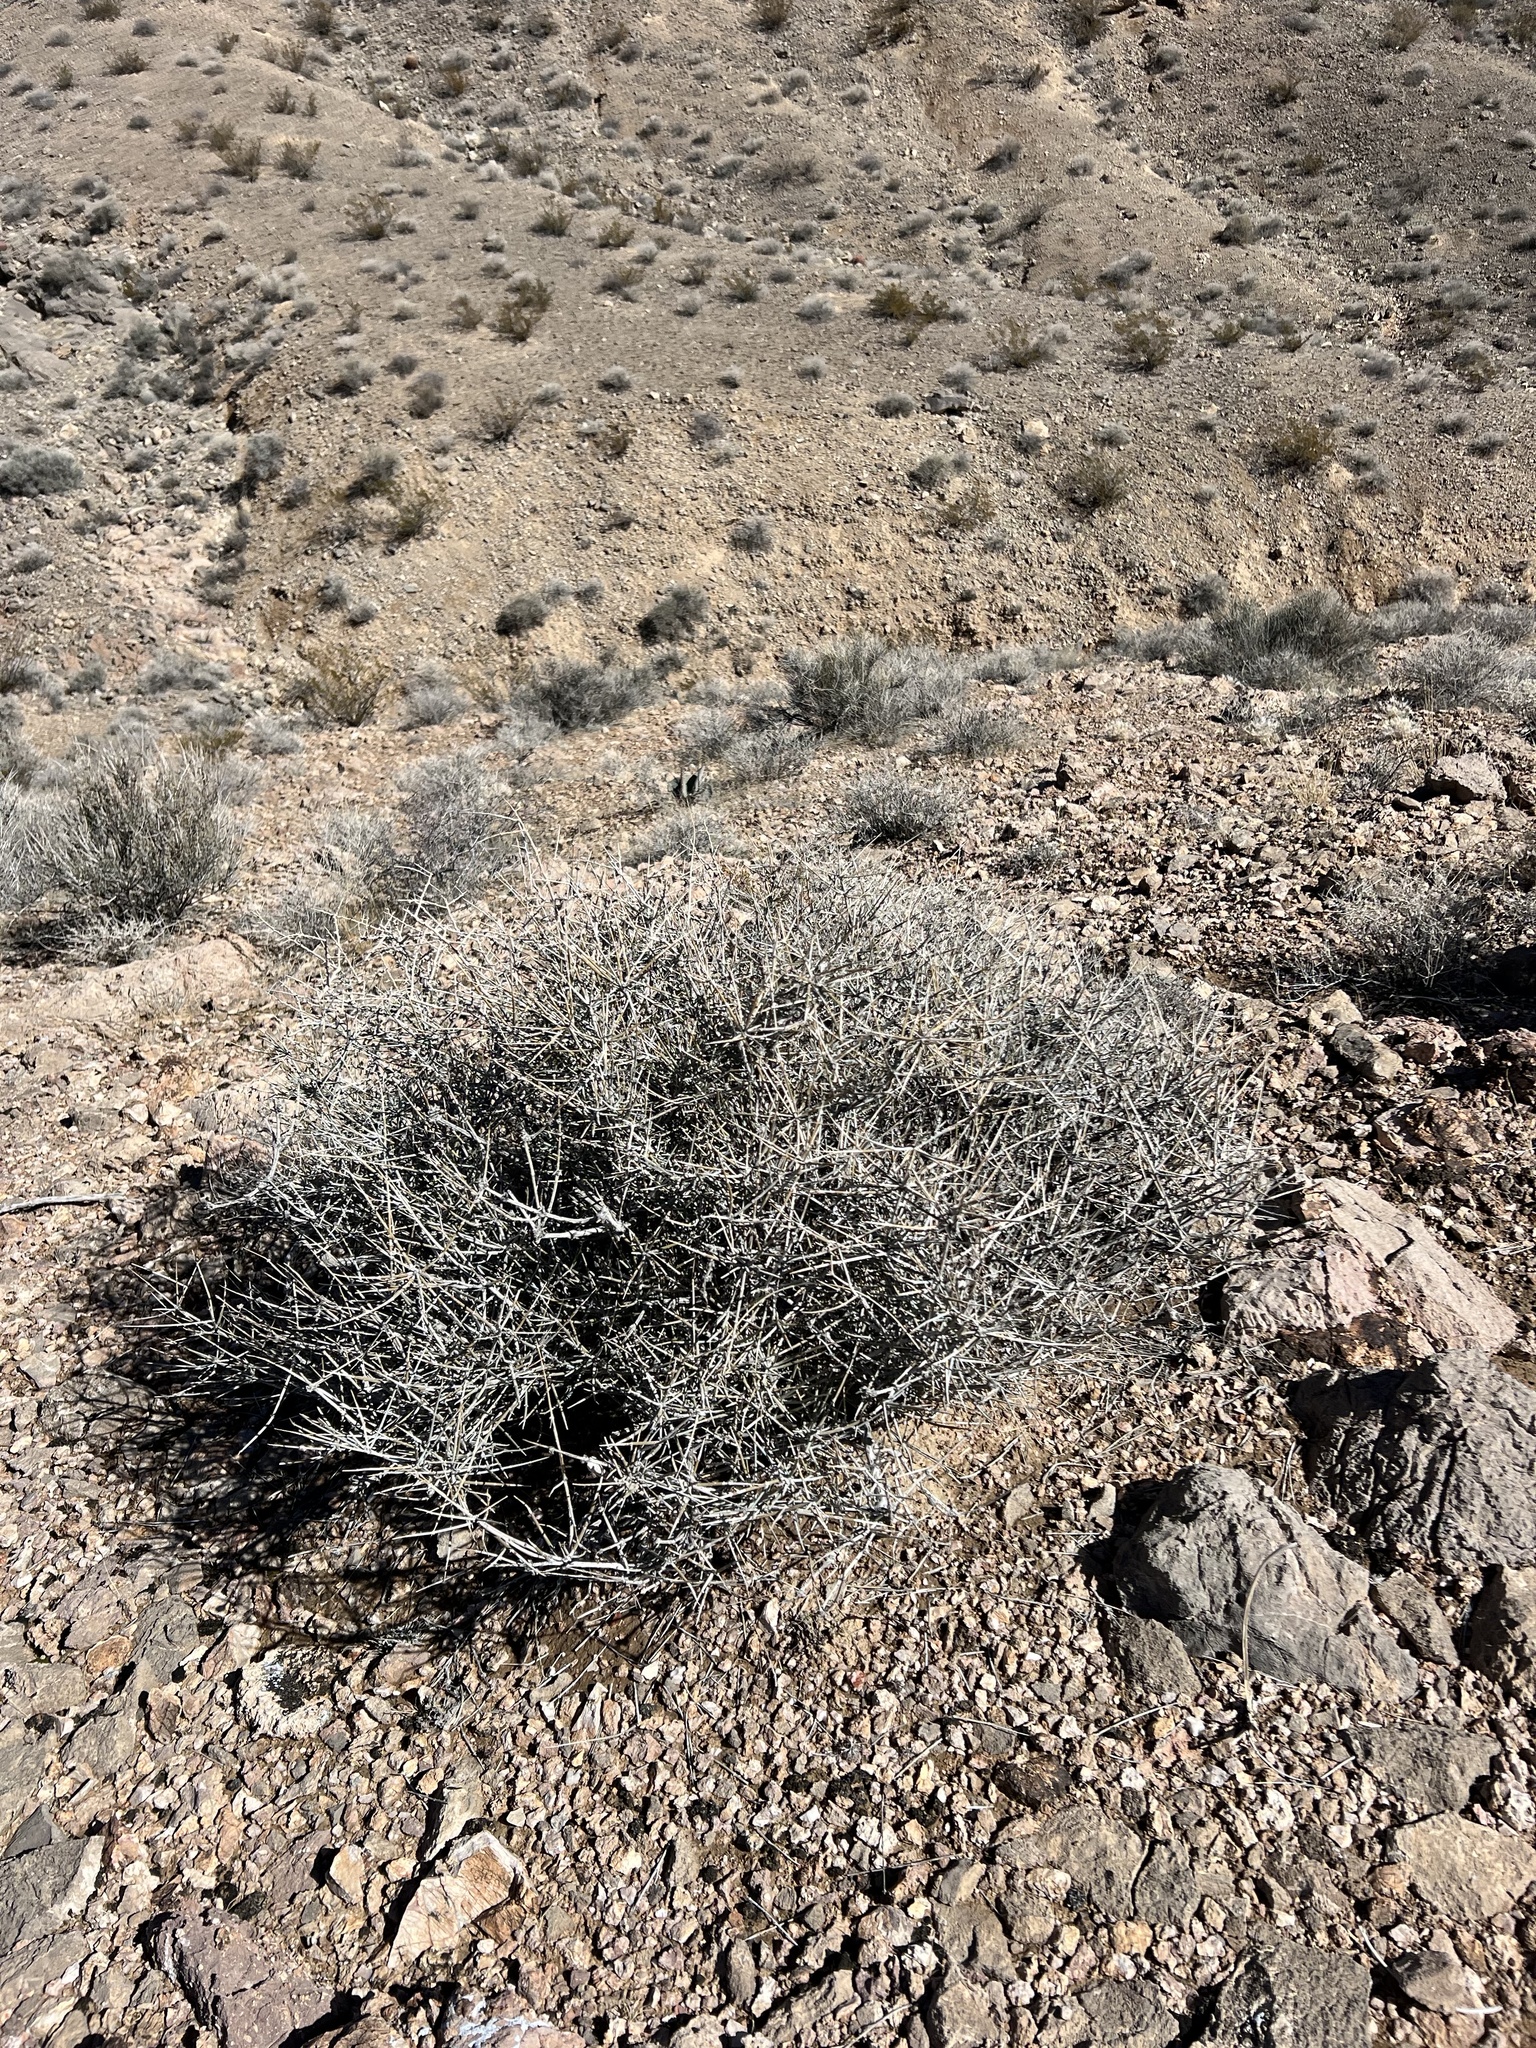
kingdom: Plantae
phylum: Tracheophyta
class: Gnetopsida
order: Ephedrales
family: Ephedraceae
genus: Ephedra
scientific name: Ephedra nevadensis
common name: Gray ephedra
